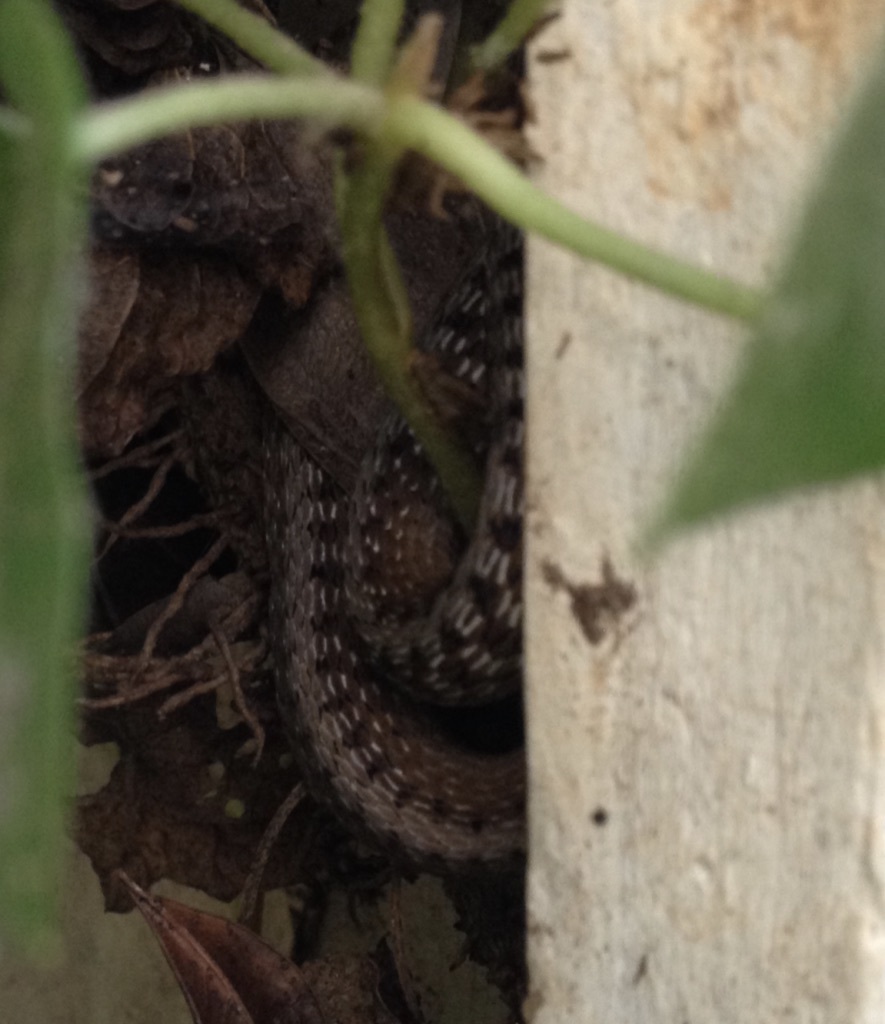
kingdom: Animalia
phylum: Chordata
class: Squamata
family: Colubridae
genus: Storeria
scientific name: Storeria dekayi
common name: (dekay’s) brown snake
